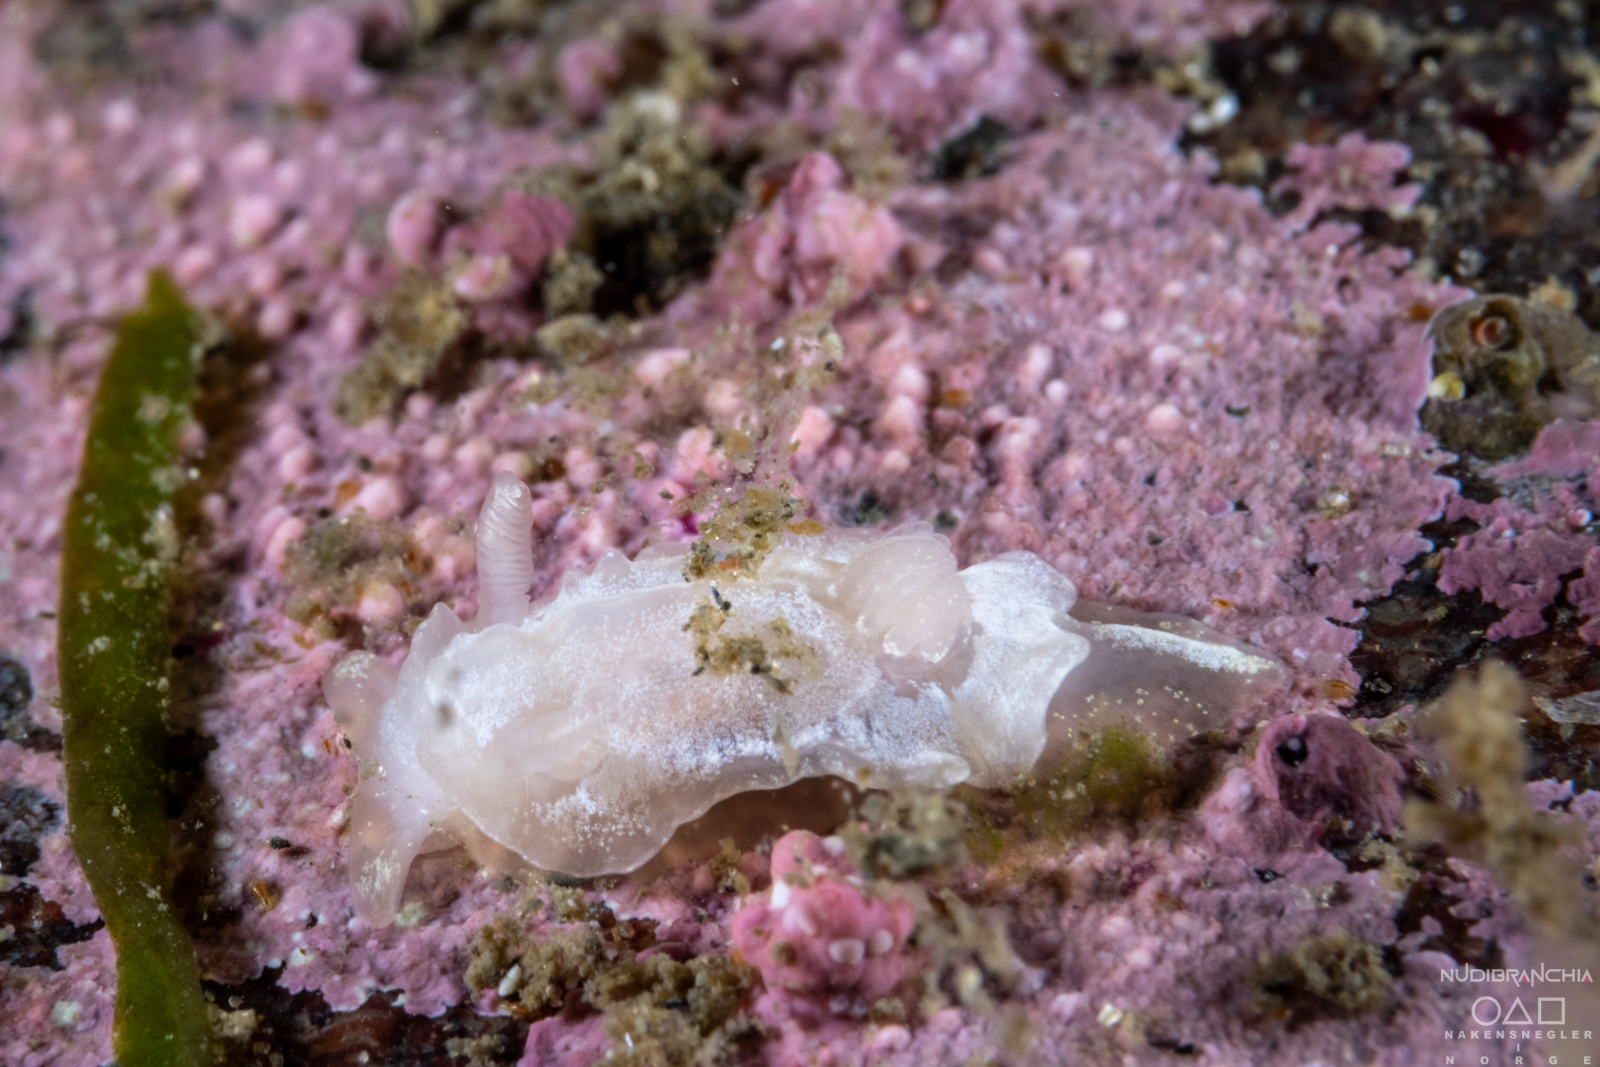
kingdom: Animalia
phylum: Mollusca
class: Gastropoda
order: Nudibranchia
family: Goniodorididae
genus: Okenia
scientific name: Okenia
